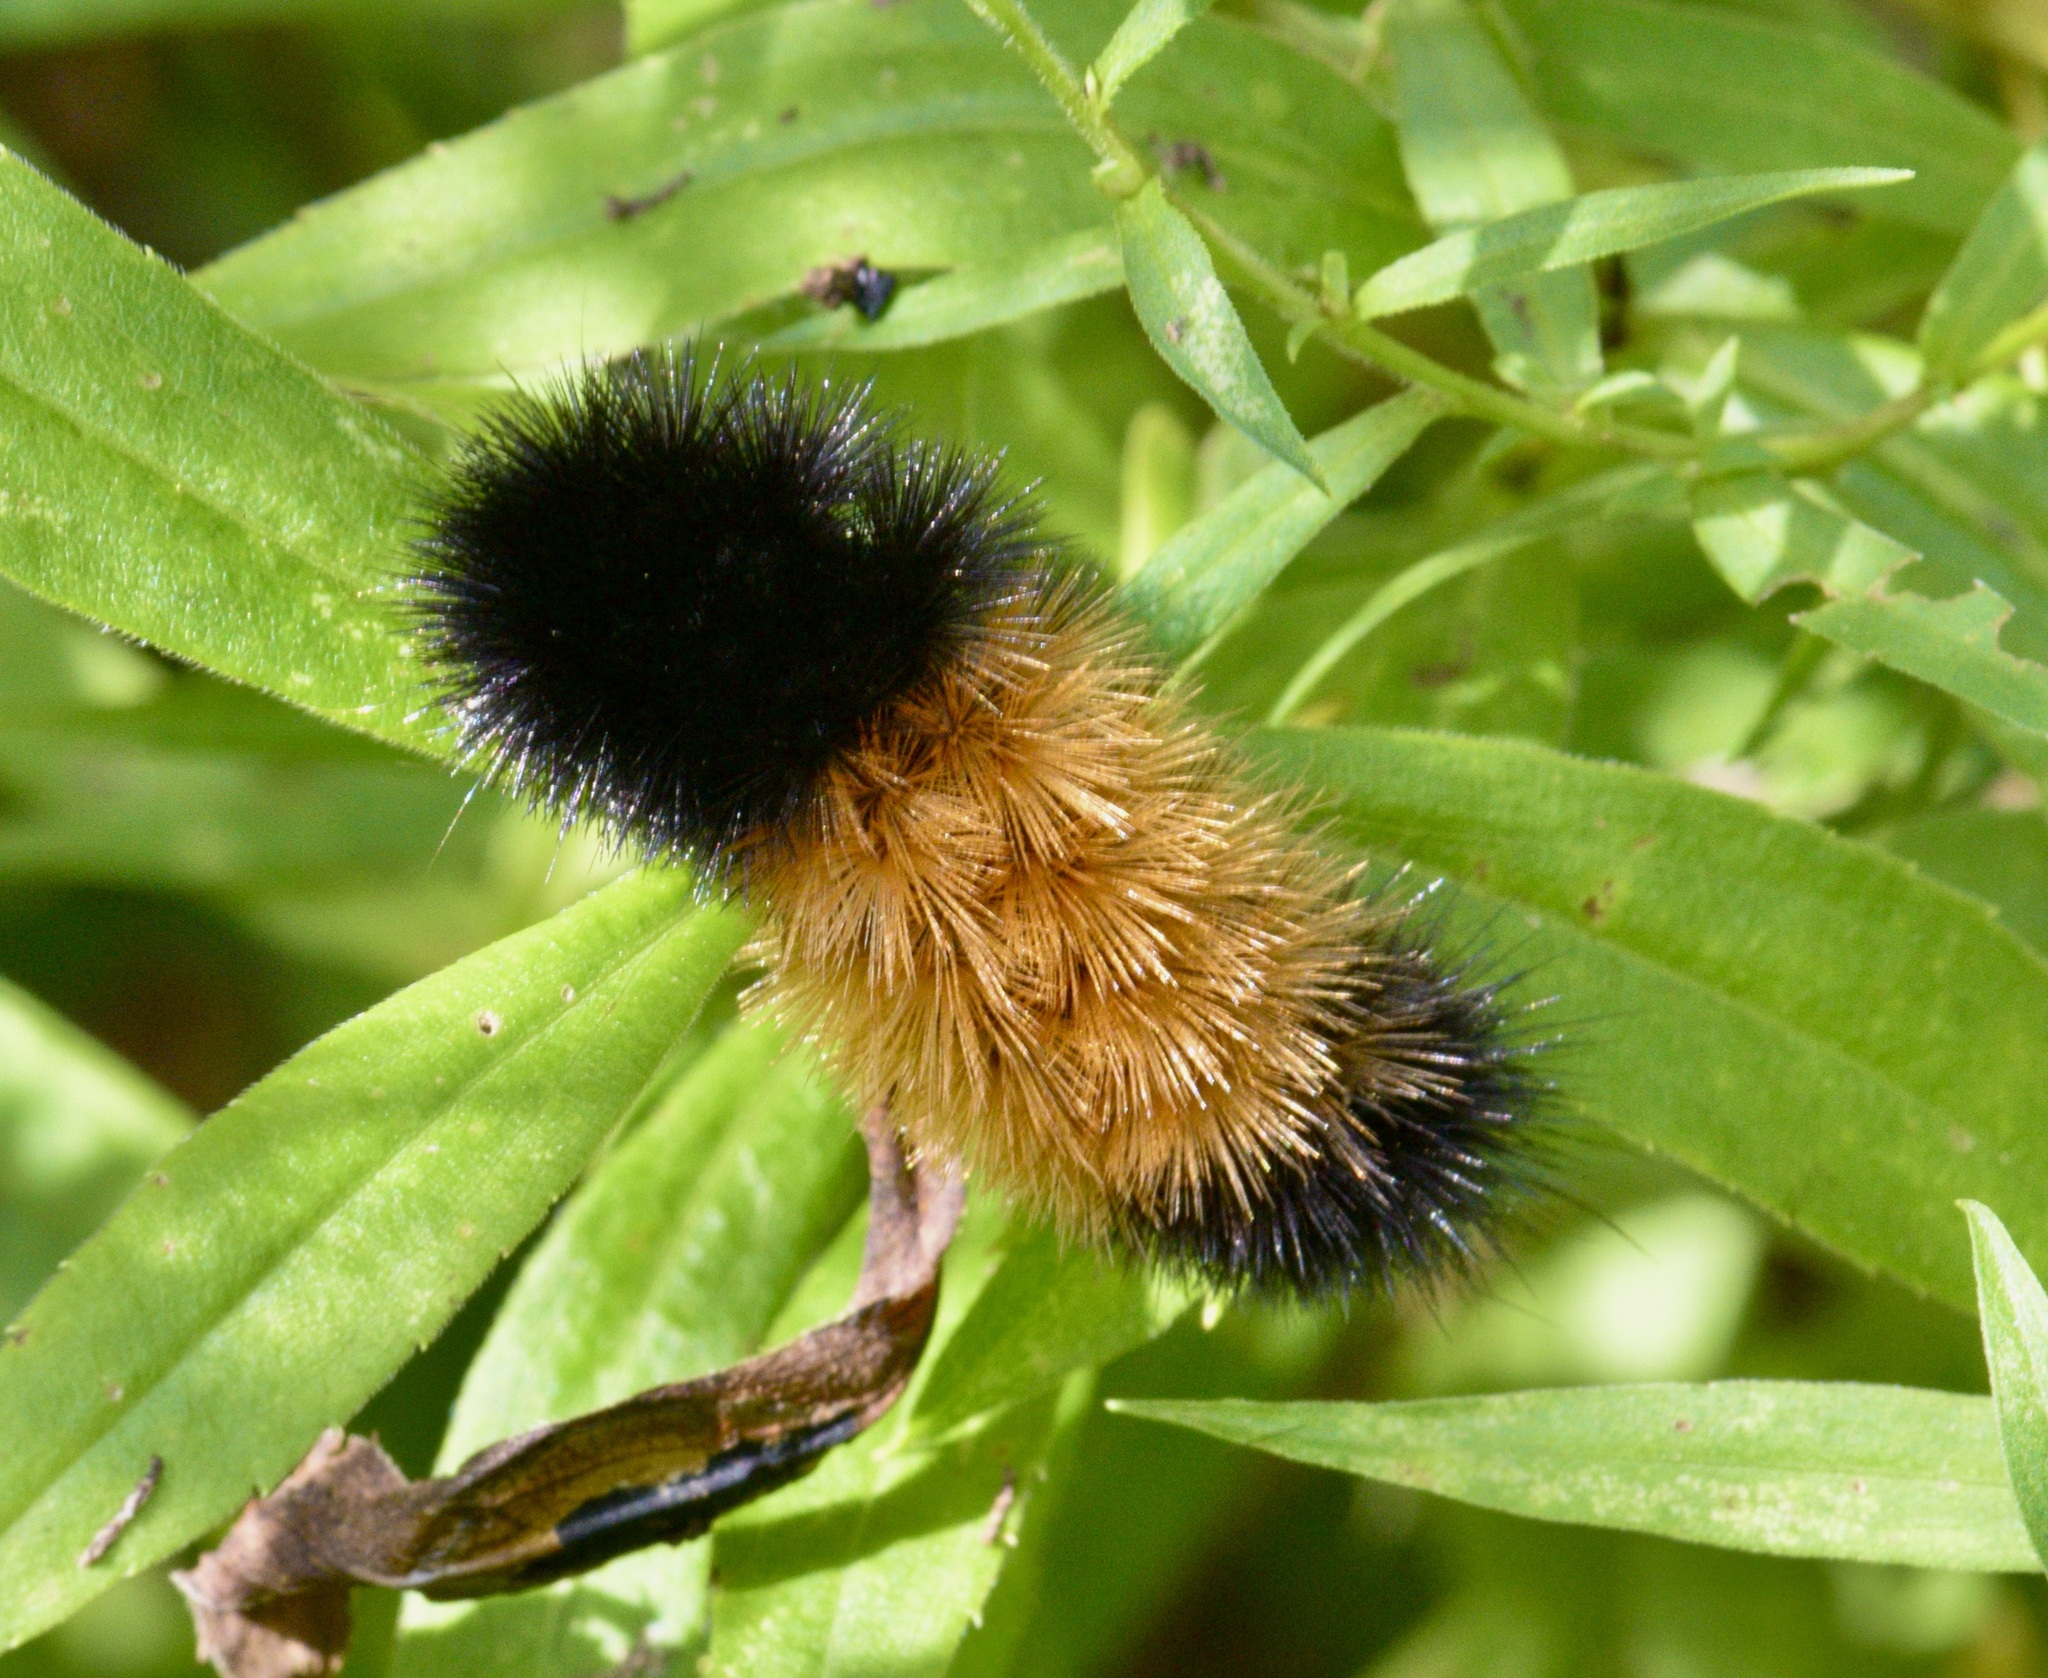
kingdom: Animalia
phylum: Arthropoda
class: Insecta
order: Lepidoptera
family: Erebidae
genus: Pyrrharctia
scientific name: Pyrrharctia isabella
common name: Isabella tiger moth
